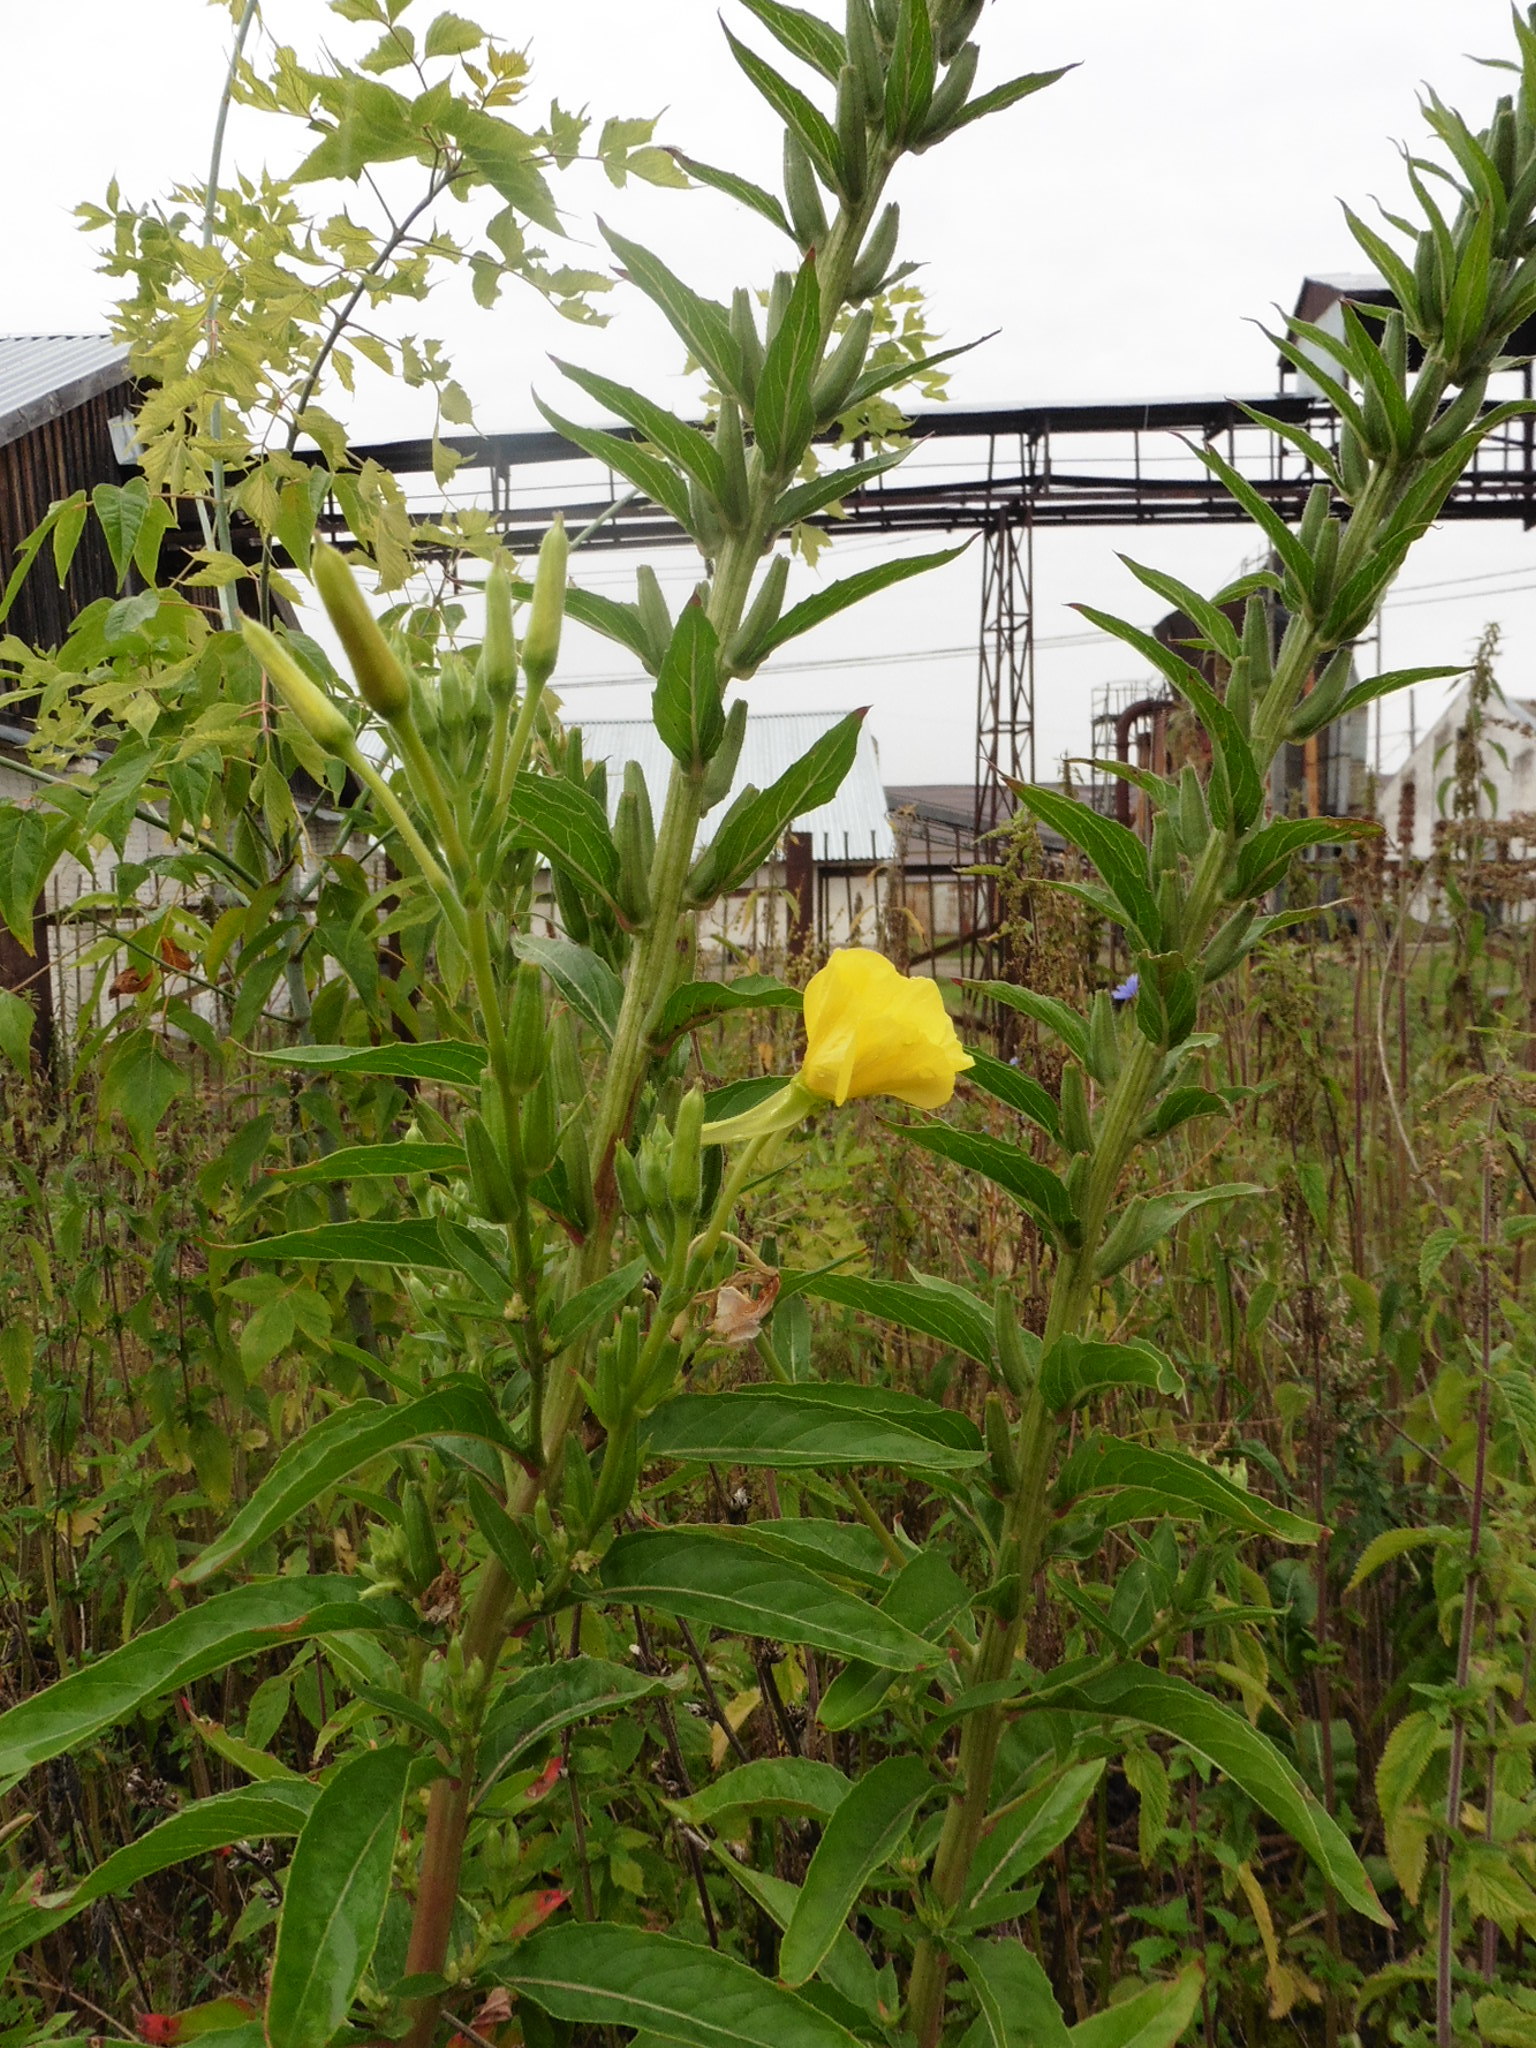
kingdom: Plantae
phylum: Tracheophyta
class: Magnoliopsida
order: Myrtales
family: Onagraceae
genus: Oenothera
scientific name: Oenothera biennis
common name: Common evening-primrose
